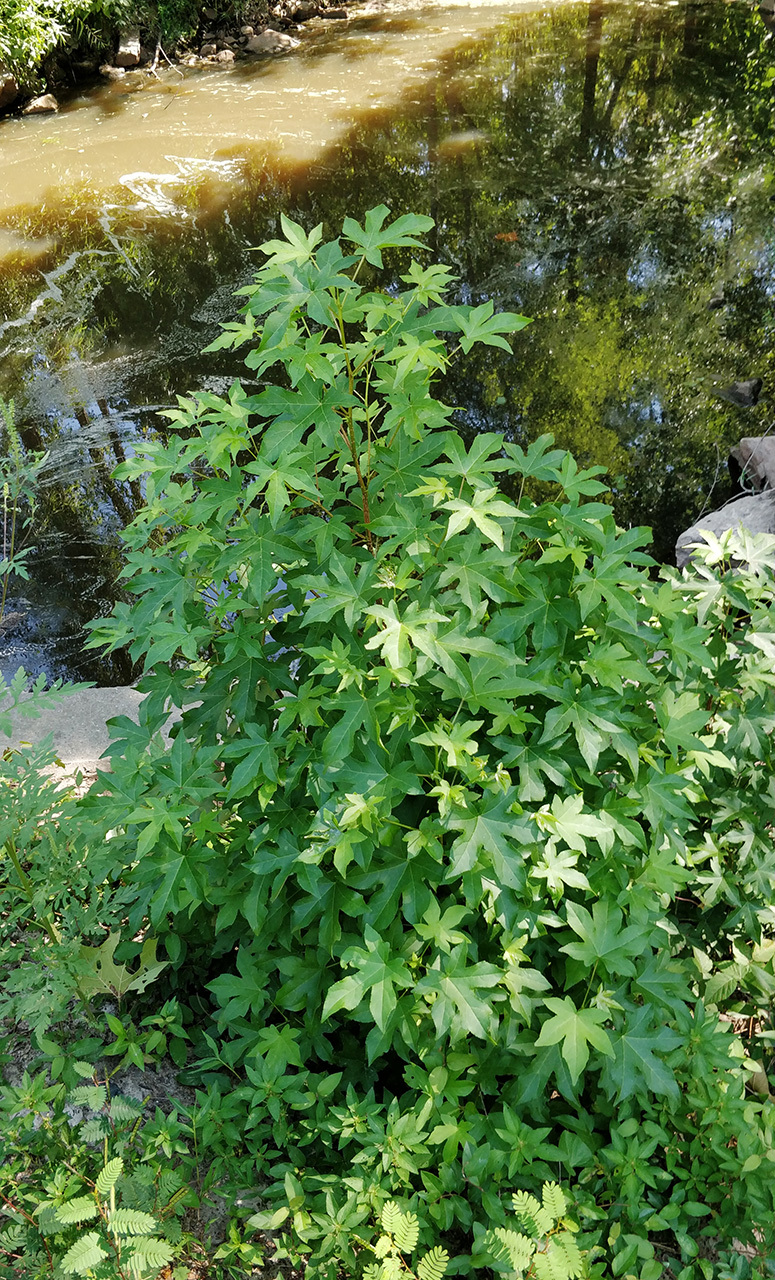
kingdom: Plantae
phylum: Tracheophyta
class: Magnoliopsida
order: Saxifragales
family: Altingiaceae
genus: Liquidambar
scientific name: Liquidambar styraciflua
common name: Sweet gum
